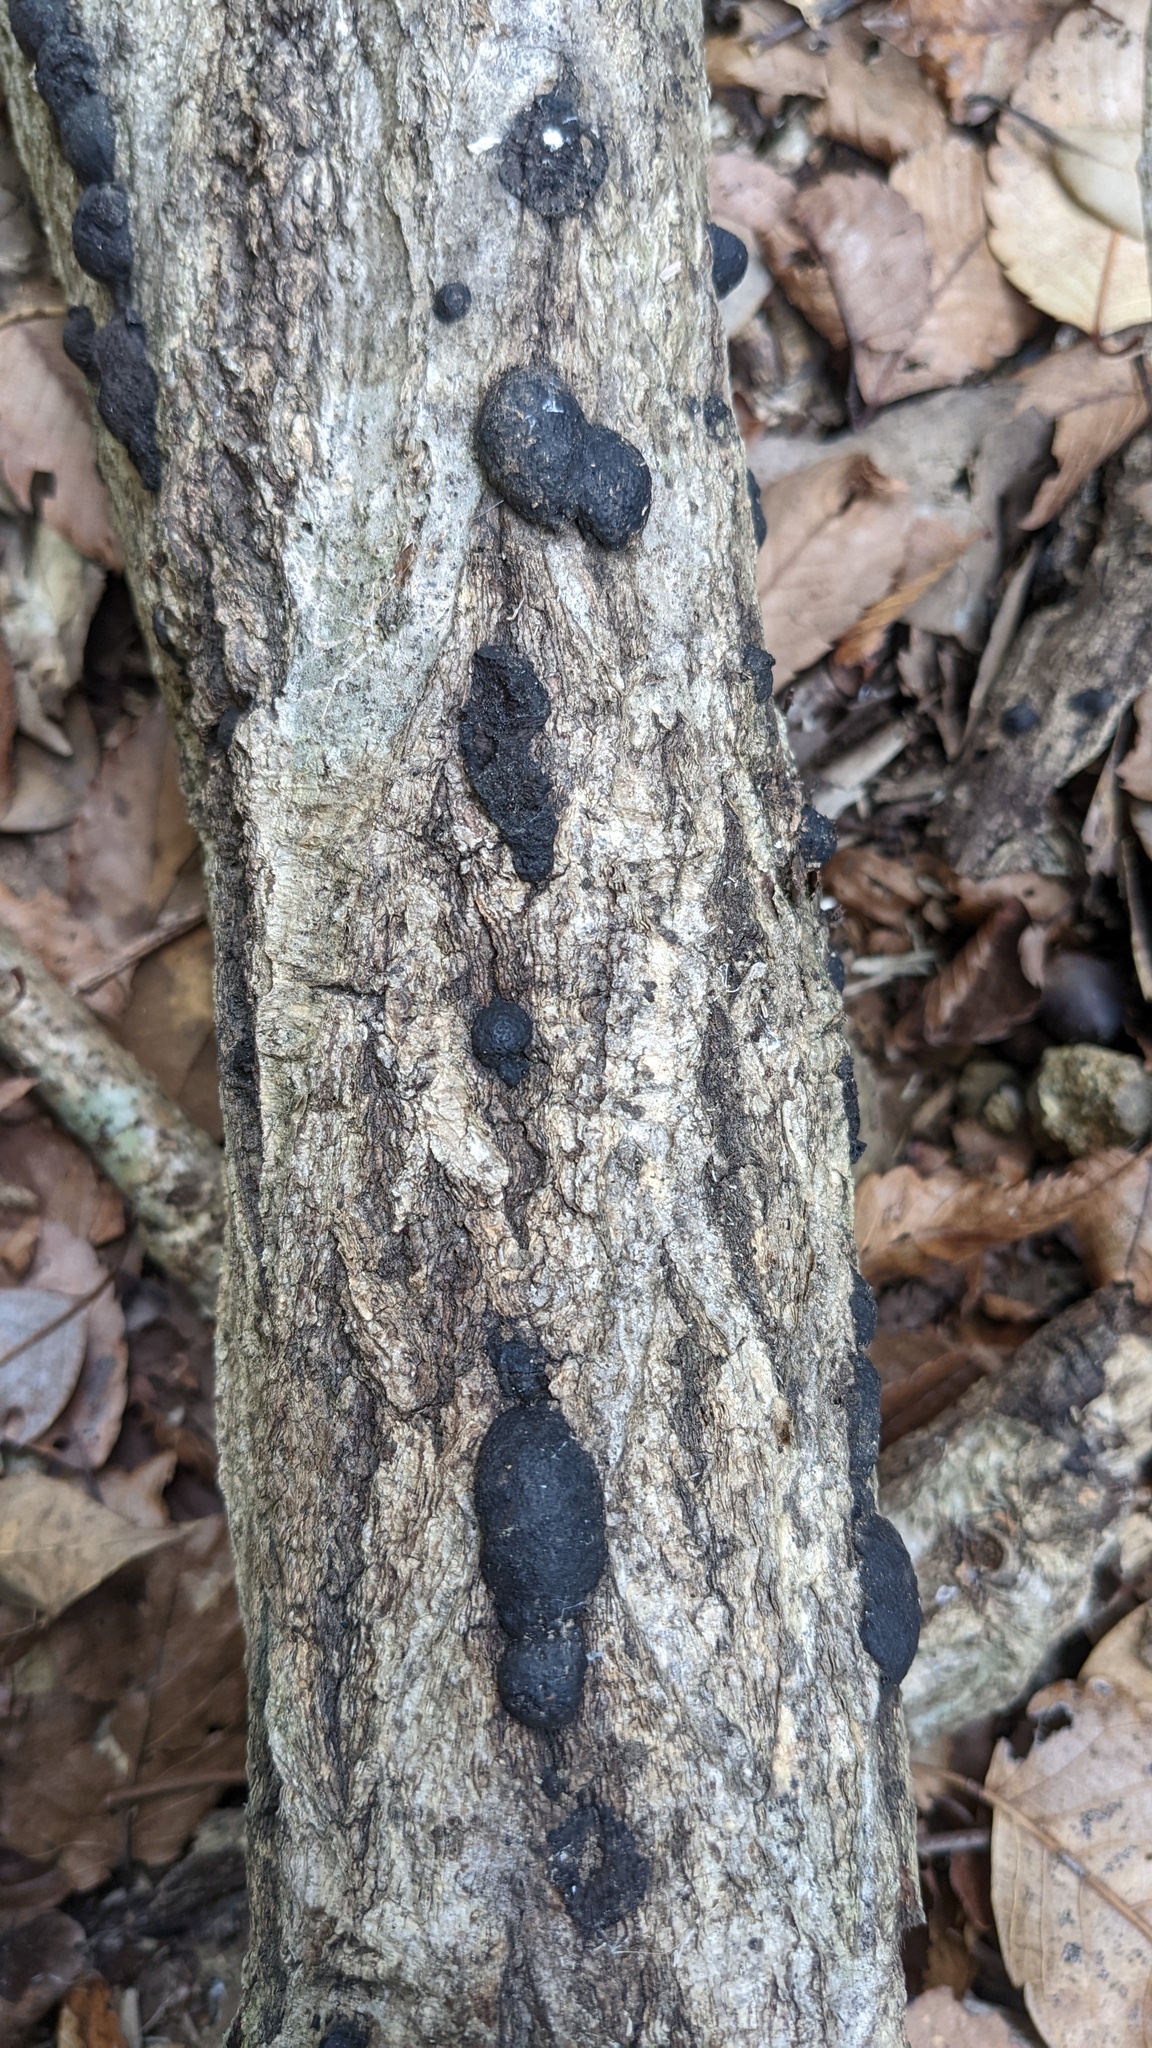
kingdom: Fungi
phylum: Ascomycota
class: Sordariomycetes
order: Xylariales
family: Hypoxylaceae
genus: Annulohypoxylon
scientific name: Annulohypoxylon truncatum
